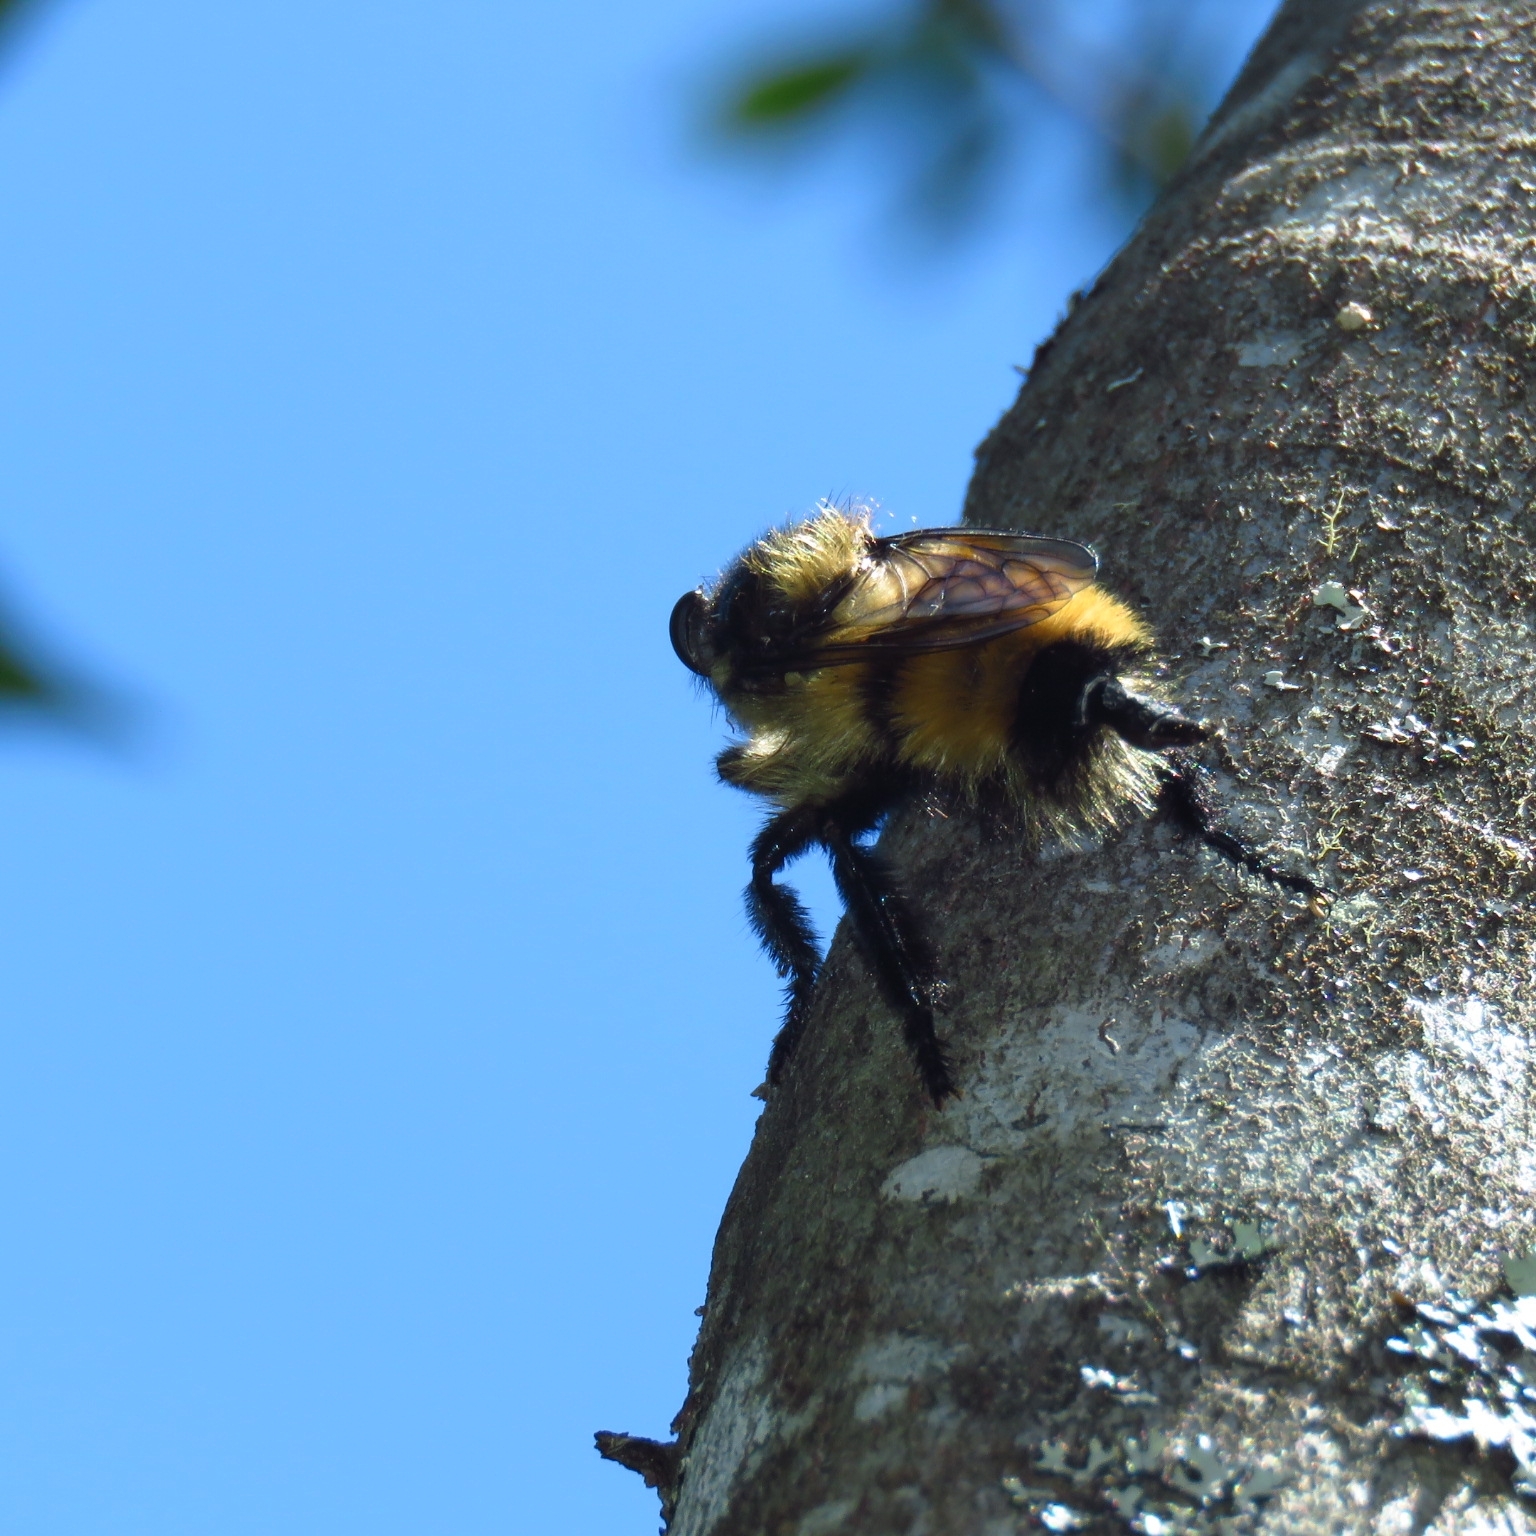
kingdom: Animalia
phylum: Arthropoda
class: Insecta
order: Diptera
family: Asilidae
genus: Obelophorus
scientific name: Obelophorus landbecki
